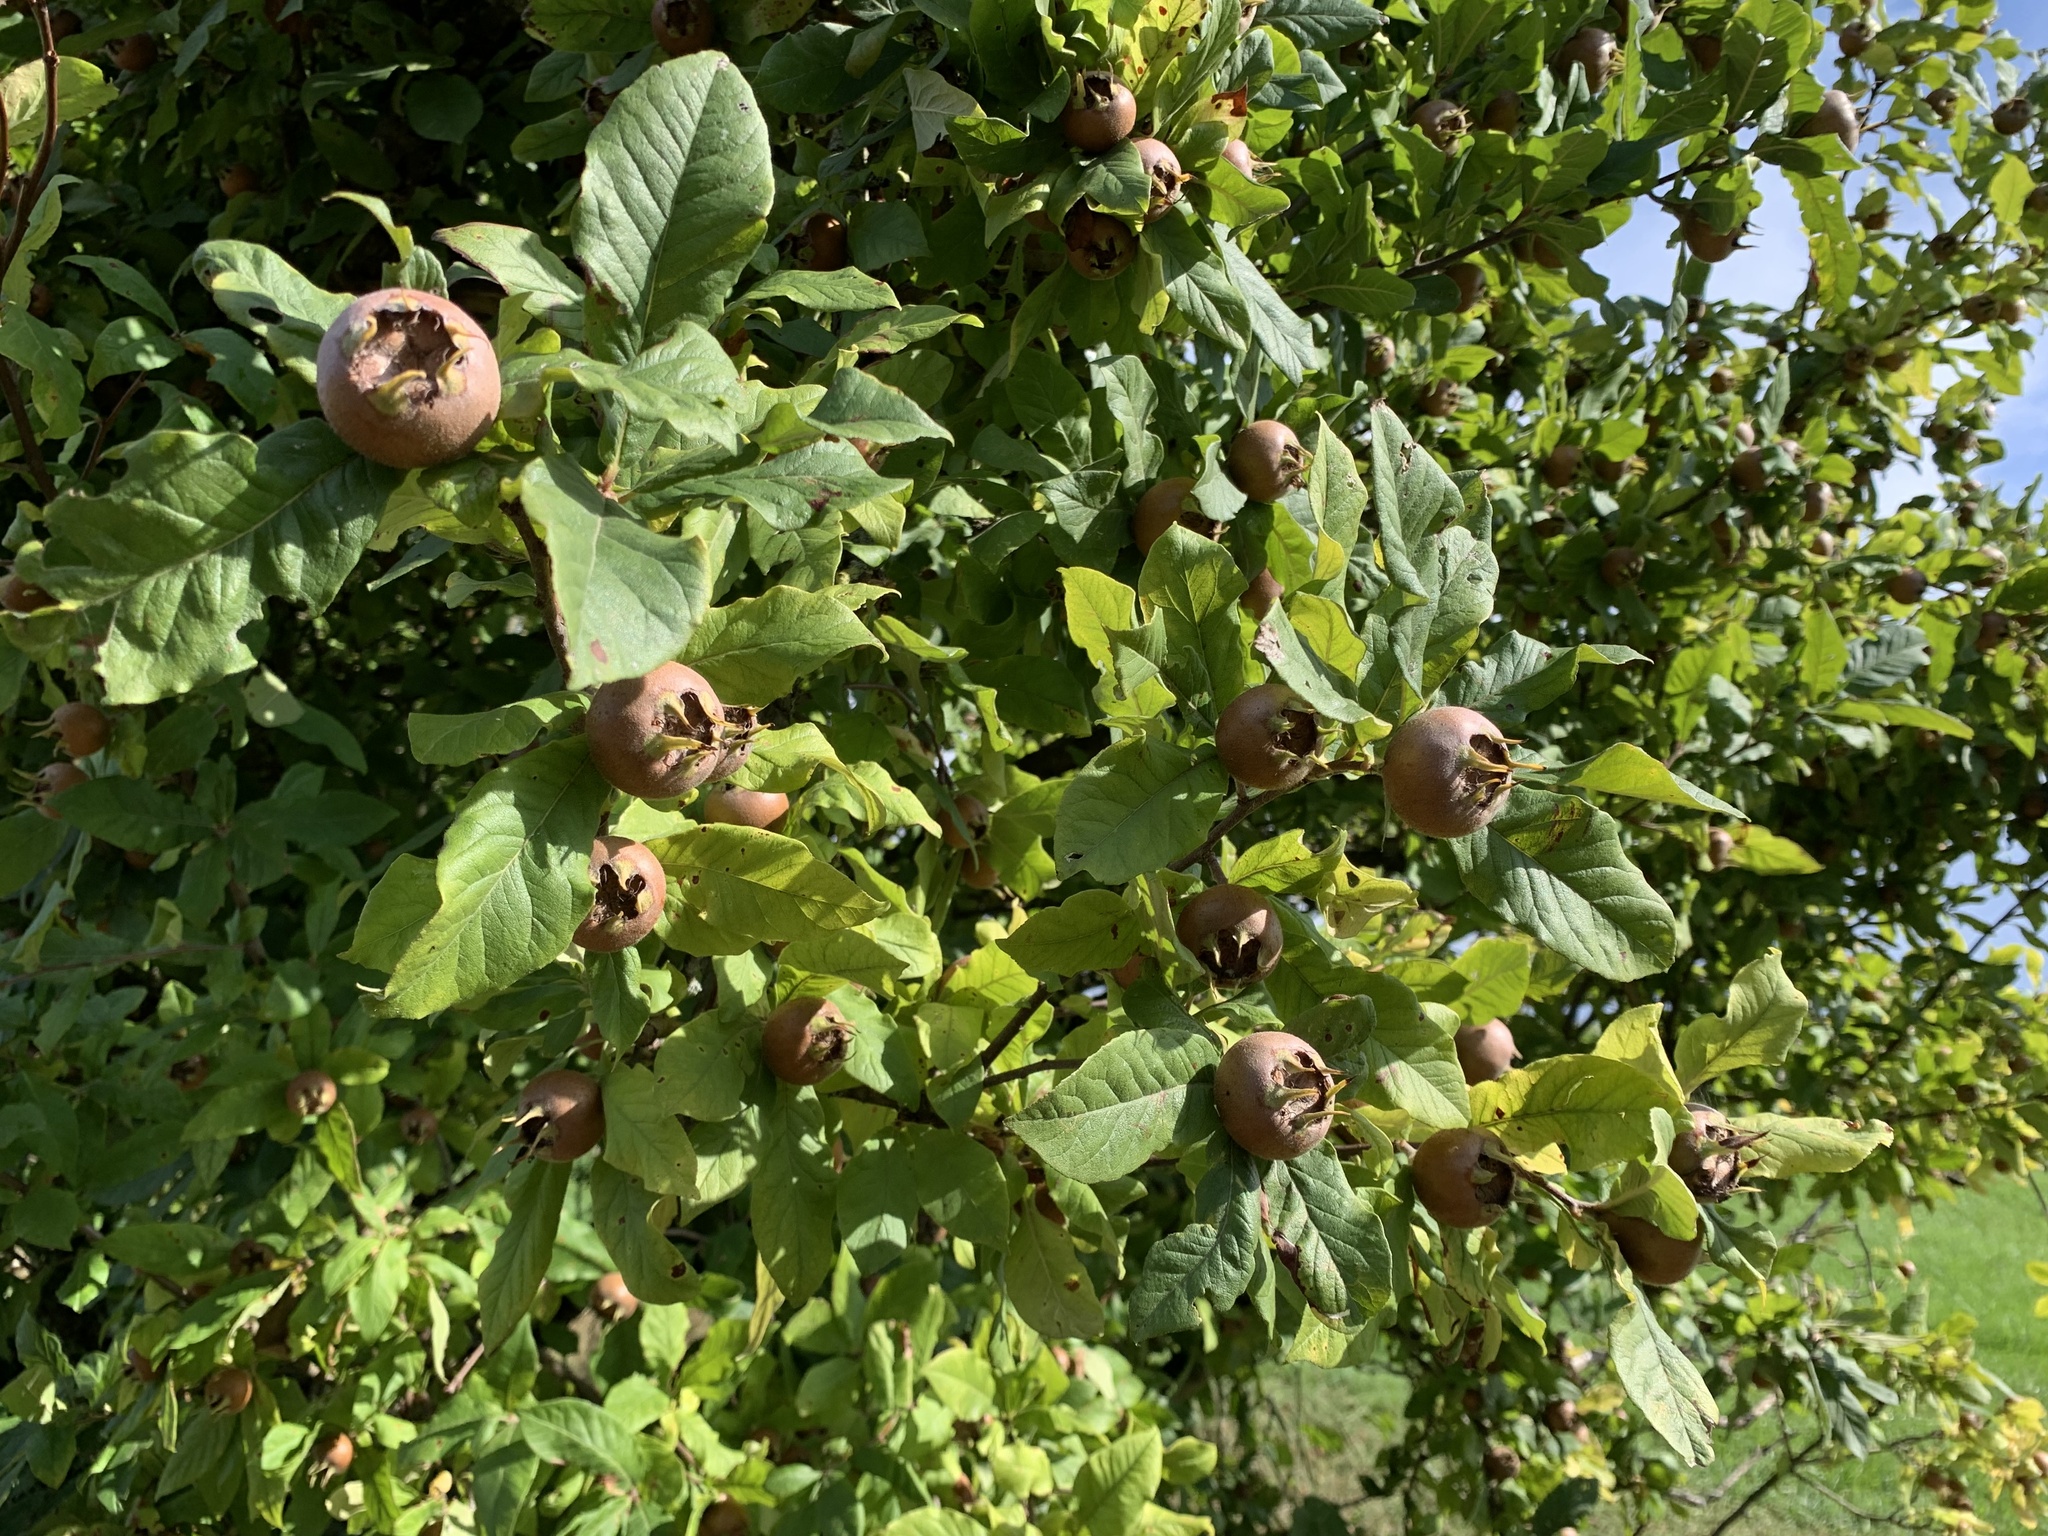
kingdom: Plantae
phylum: Tracheophyta
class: Magnoliopsida
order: Rosales
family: Rosaceae
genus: Mespilus
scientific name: Mespilus germanica
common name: Medlar
